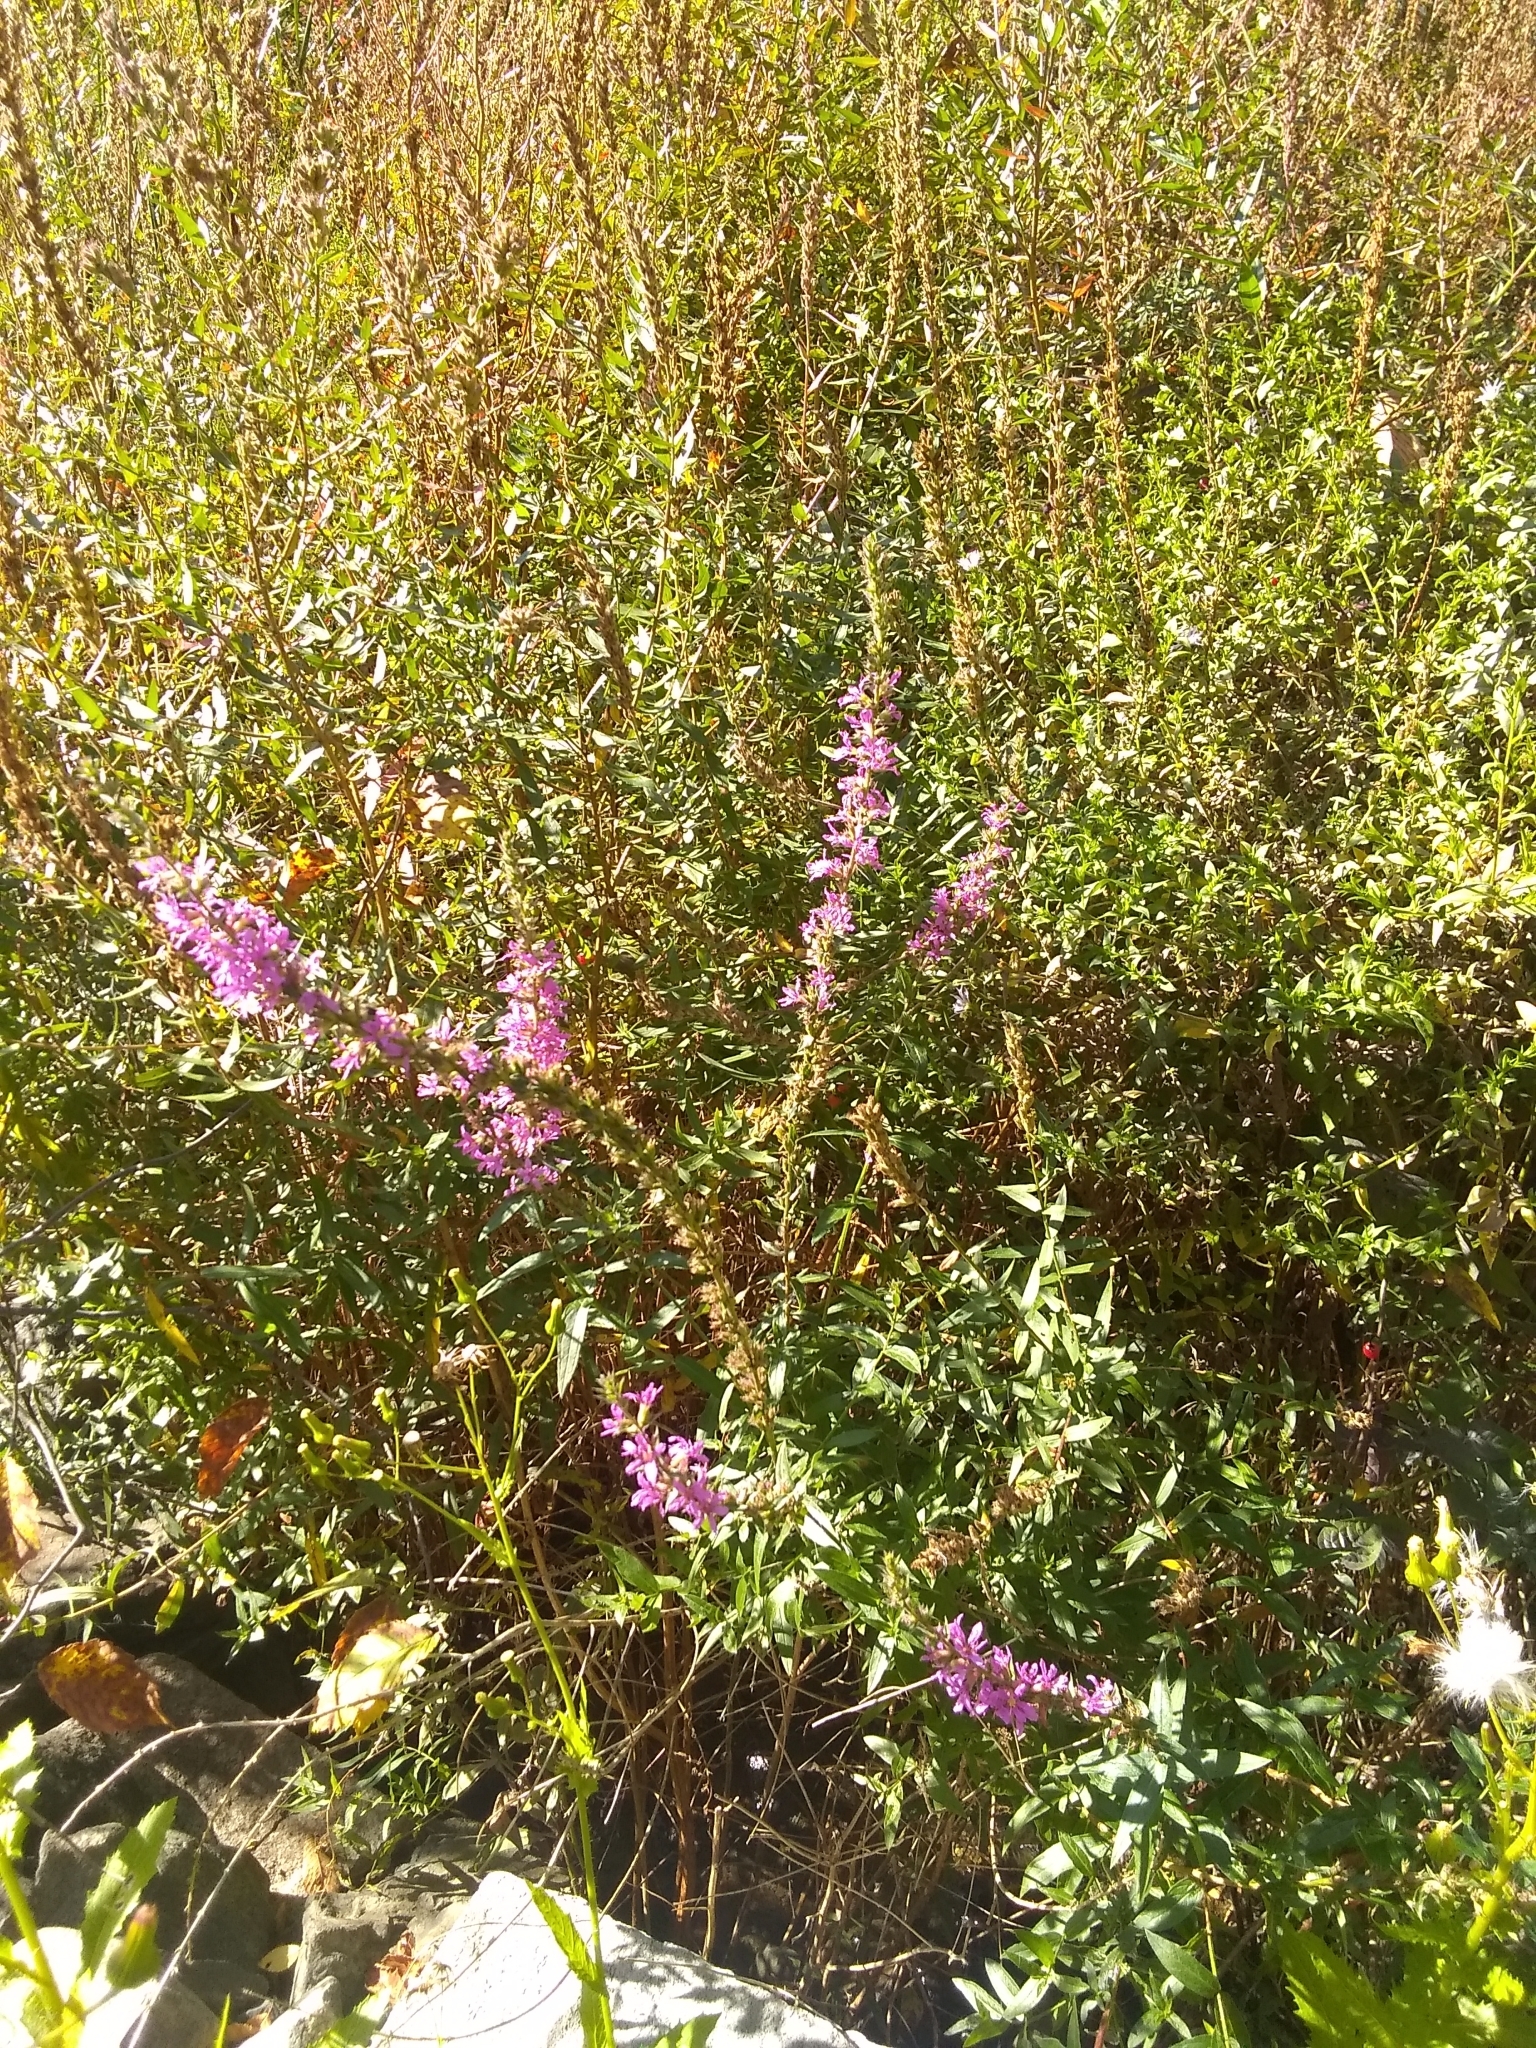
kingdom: Plantae
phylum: Tracheophyta
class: Magnoliopsida
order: Myrtales
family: Lythraceae
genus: Lythrum
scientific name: Lythrum salicaria
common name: Purple loosestrife
